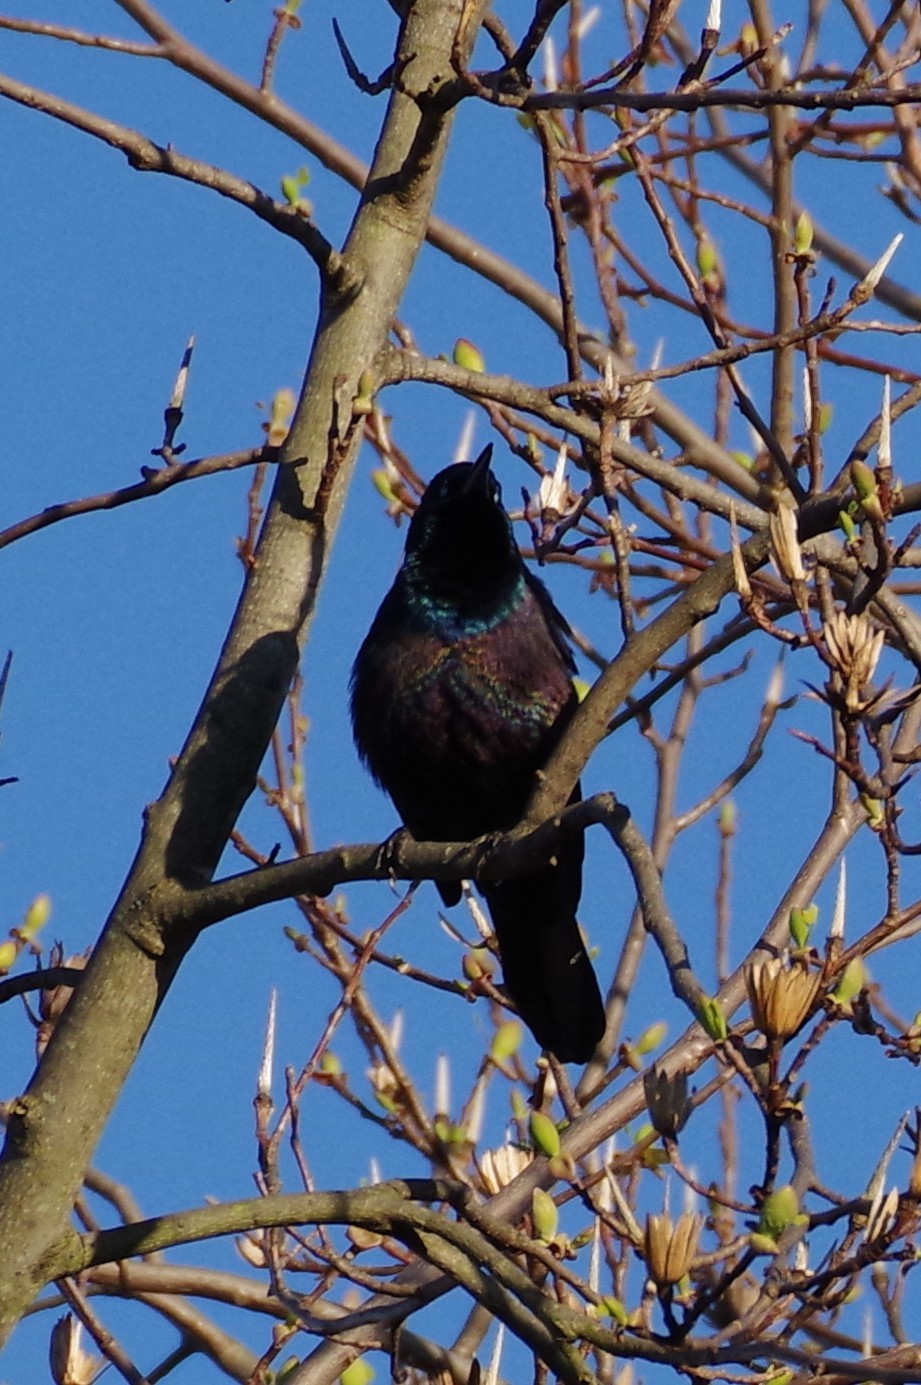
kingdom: Animalia
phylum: Chordata
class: Aves
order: Passeriformes
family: Icteridae
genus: Quiscalus
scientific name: Quiscalus quiscula
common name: Common grackle
